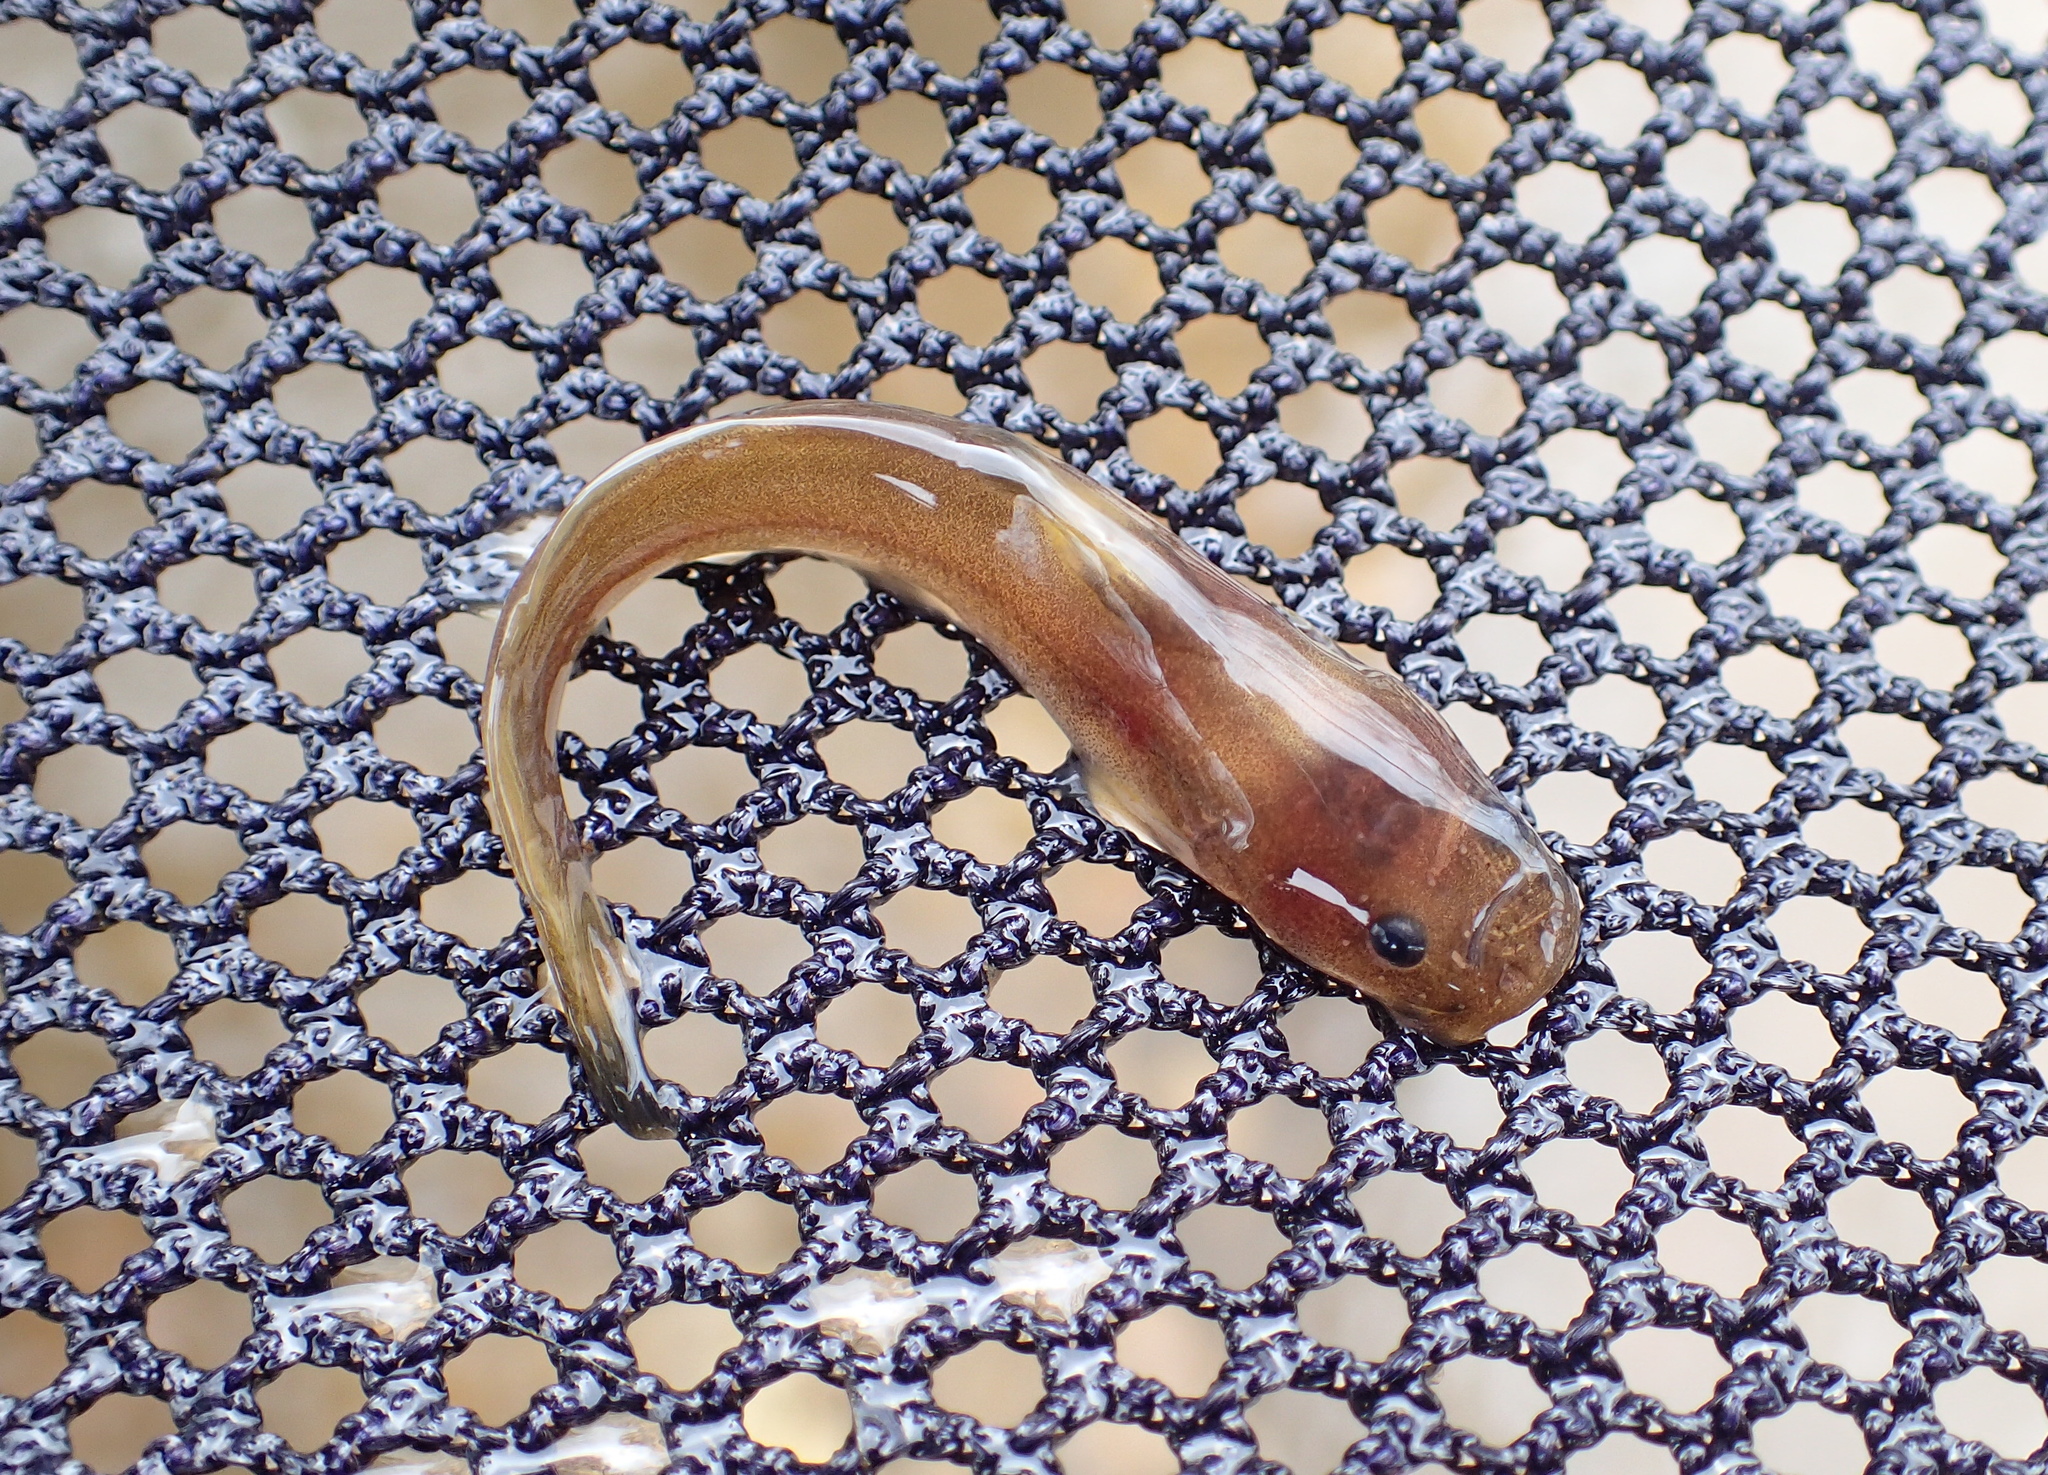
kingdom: Animalia
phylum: Chordata
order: Siluriformes
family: Ictaluridae
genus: Noturus
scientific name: Noturus exilis
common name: Slender madtom
